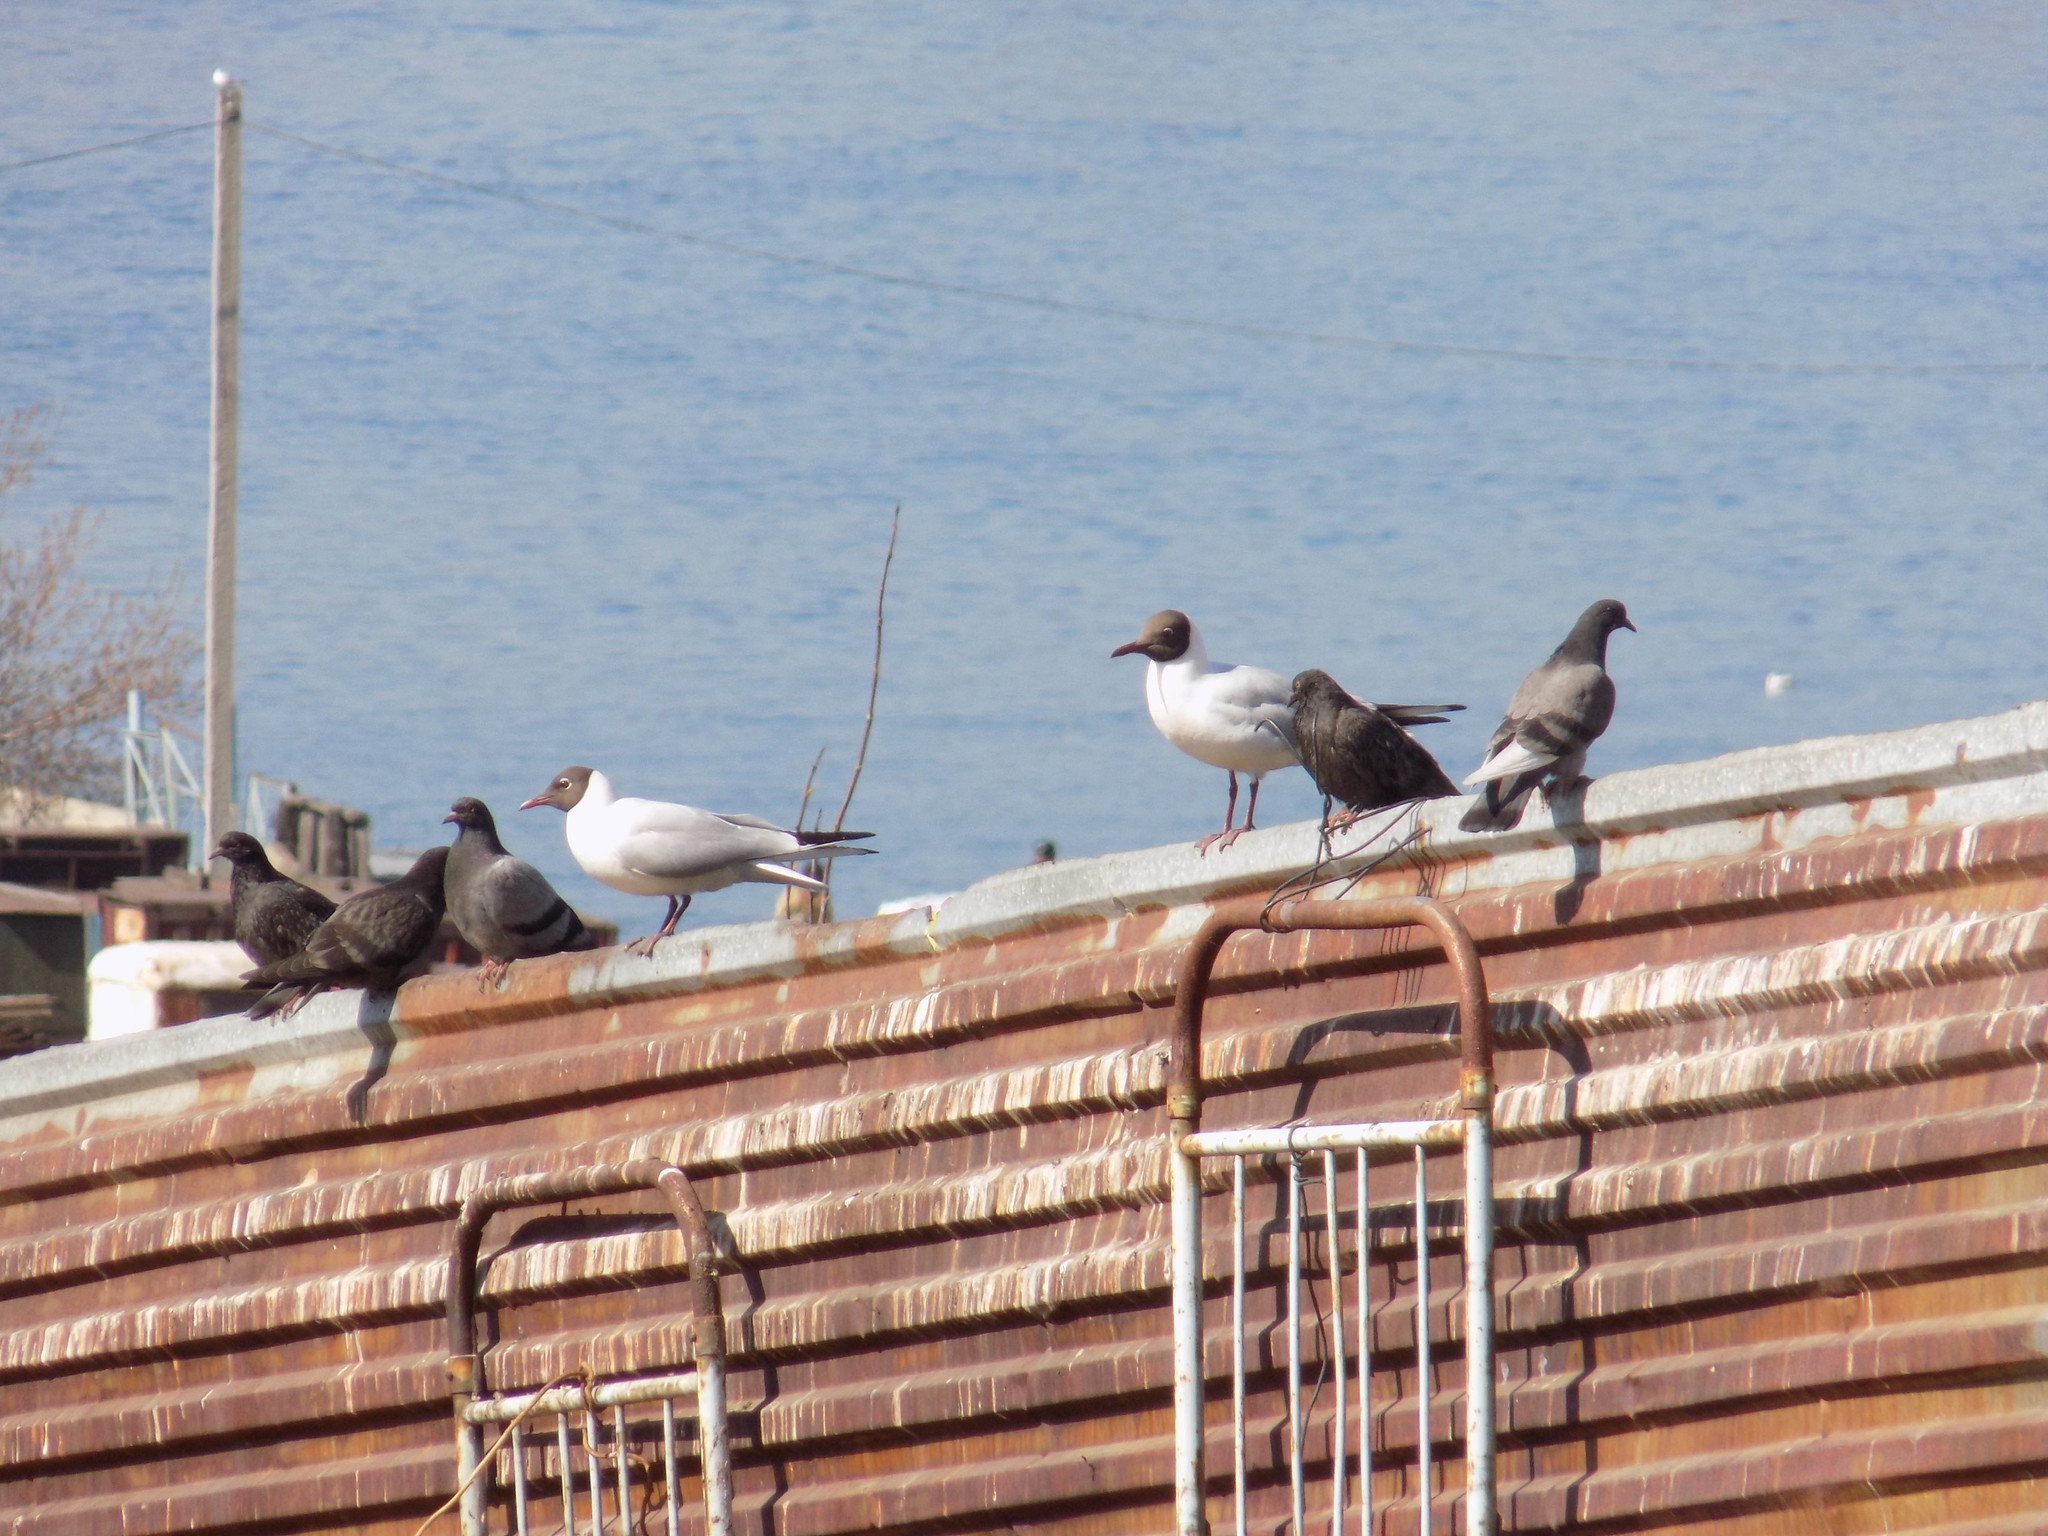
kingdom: Animalia
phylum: Chordata
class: Aves
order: Charadriiformes
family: Laridae
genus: Chroicocephalus
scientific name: Chroicocephalus ridibundus
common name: Black-headed gull
